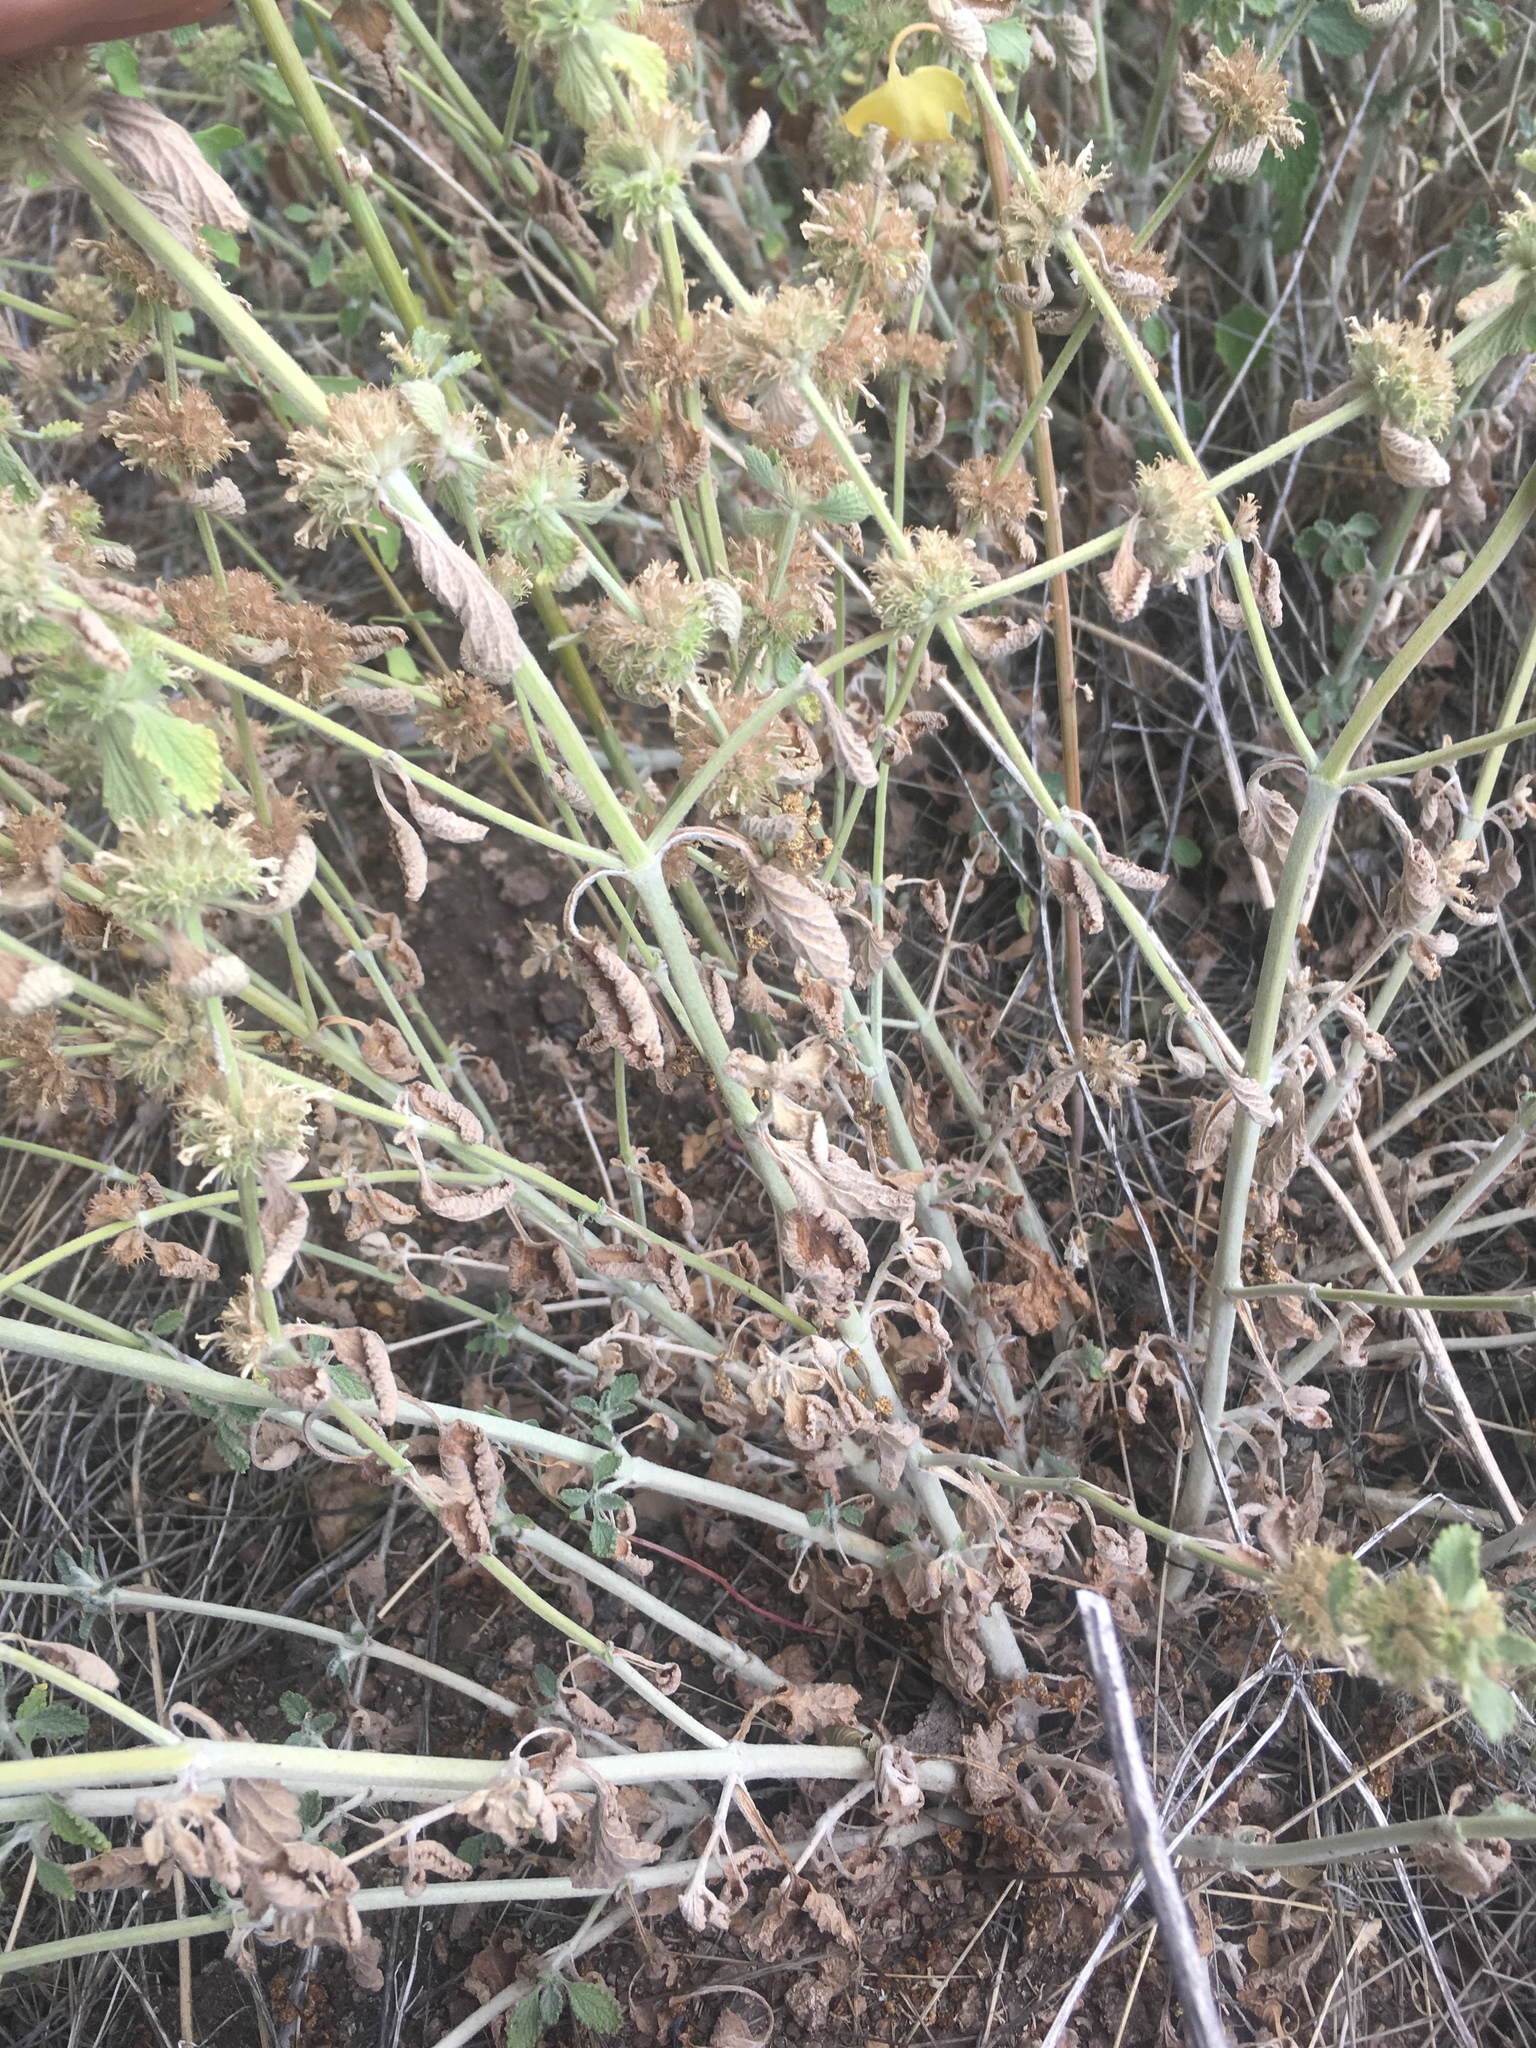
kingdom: Plantae
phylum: Tracheophyta
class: Magnoliopsida
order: Lamiales
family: Lamiaceae
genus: Marrubium
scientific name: Marrubium vulgare
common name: Horehound
